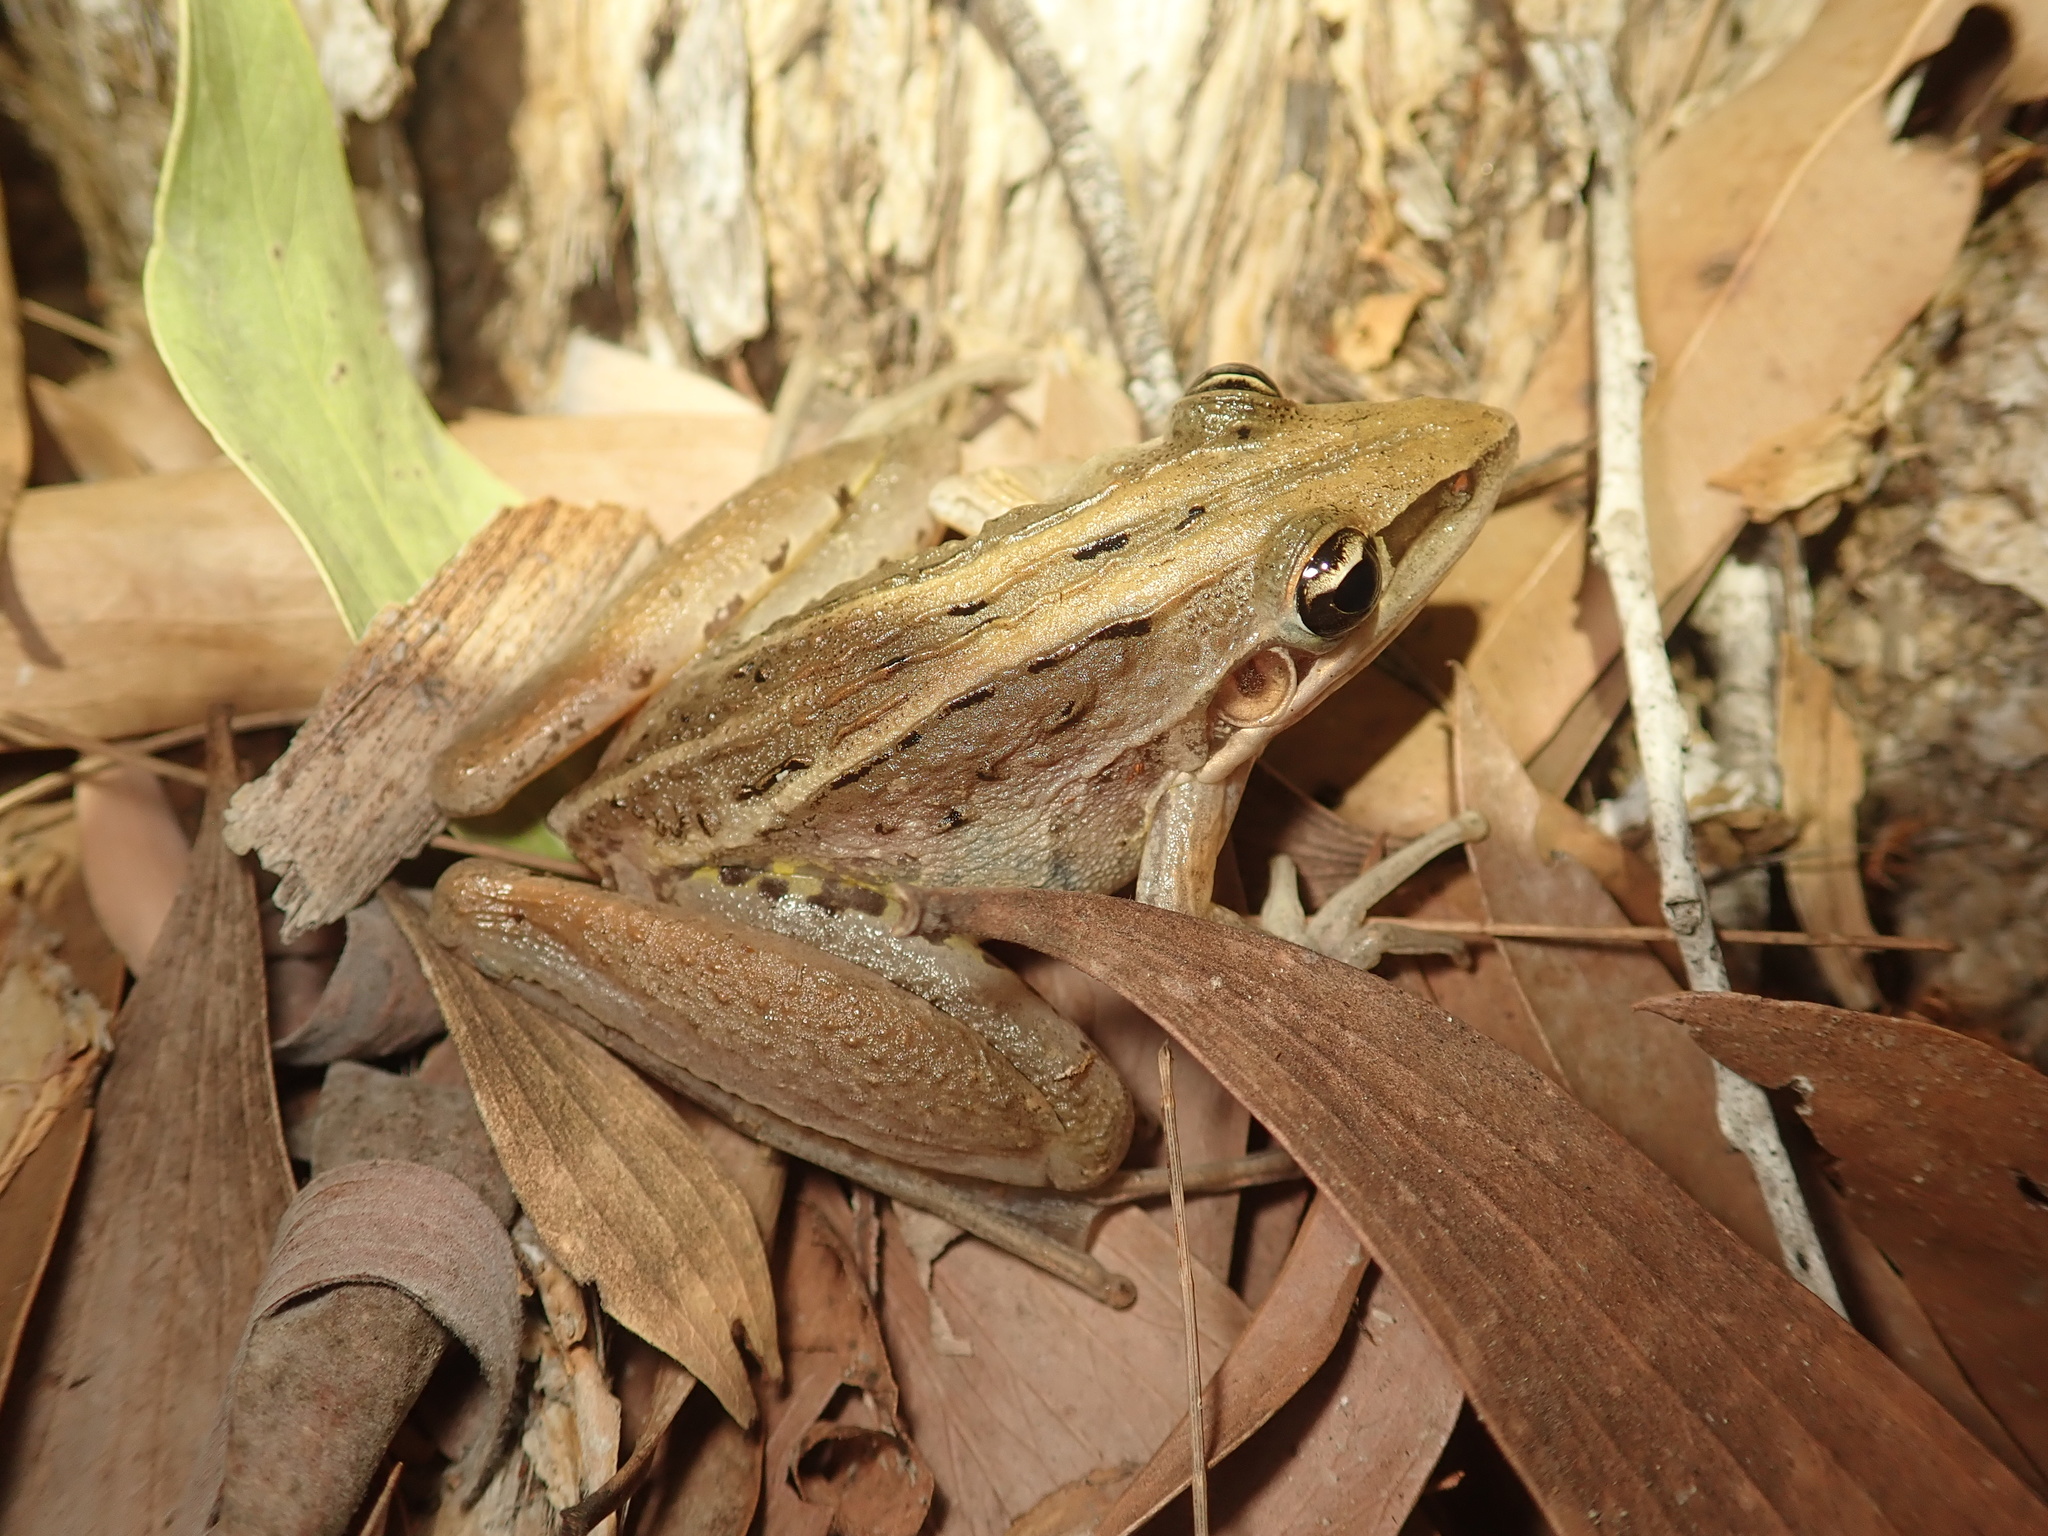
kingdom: Animalia
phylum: Chordata
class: Amphibia
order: Anura
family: Pelodryadidae
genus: Litoria
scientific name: Litoria nasuta
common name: Rocket frog
